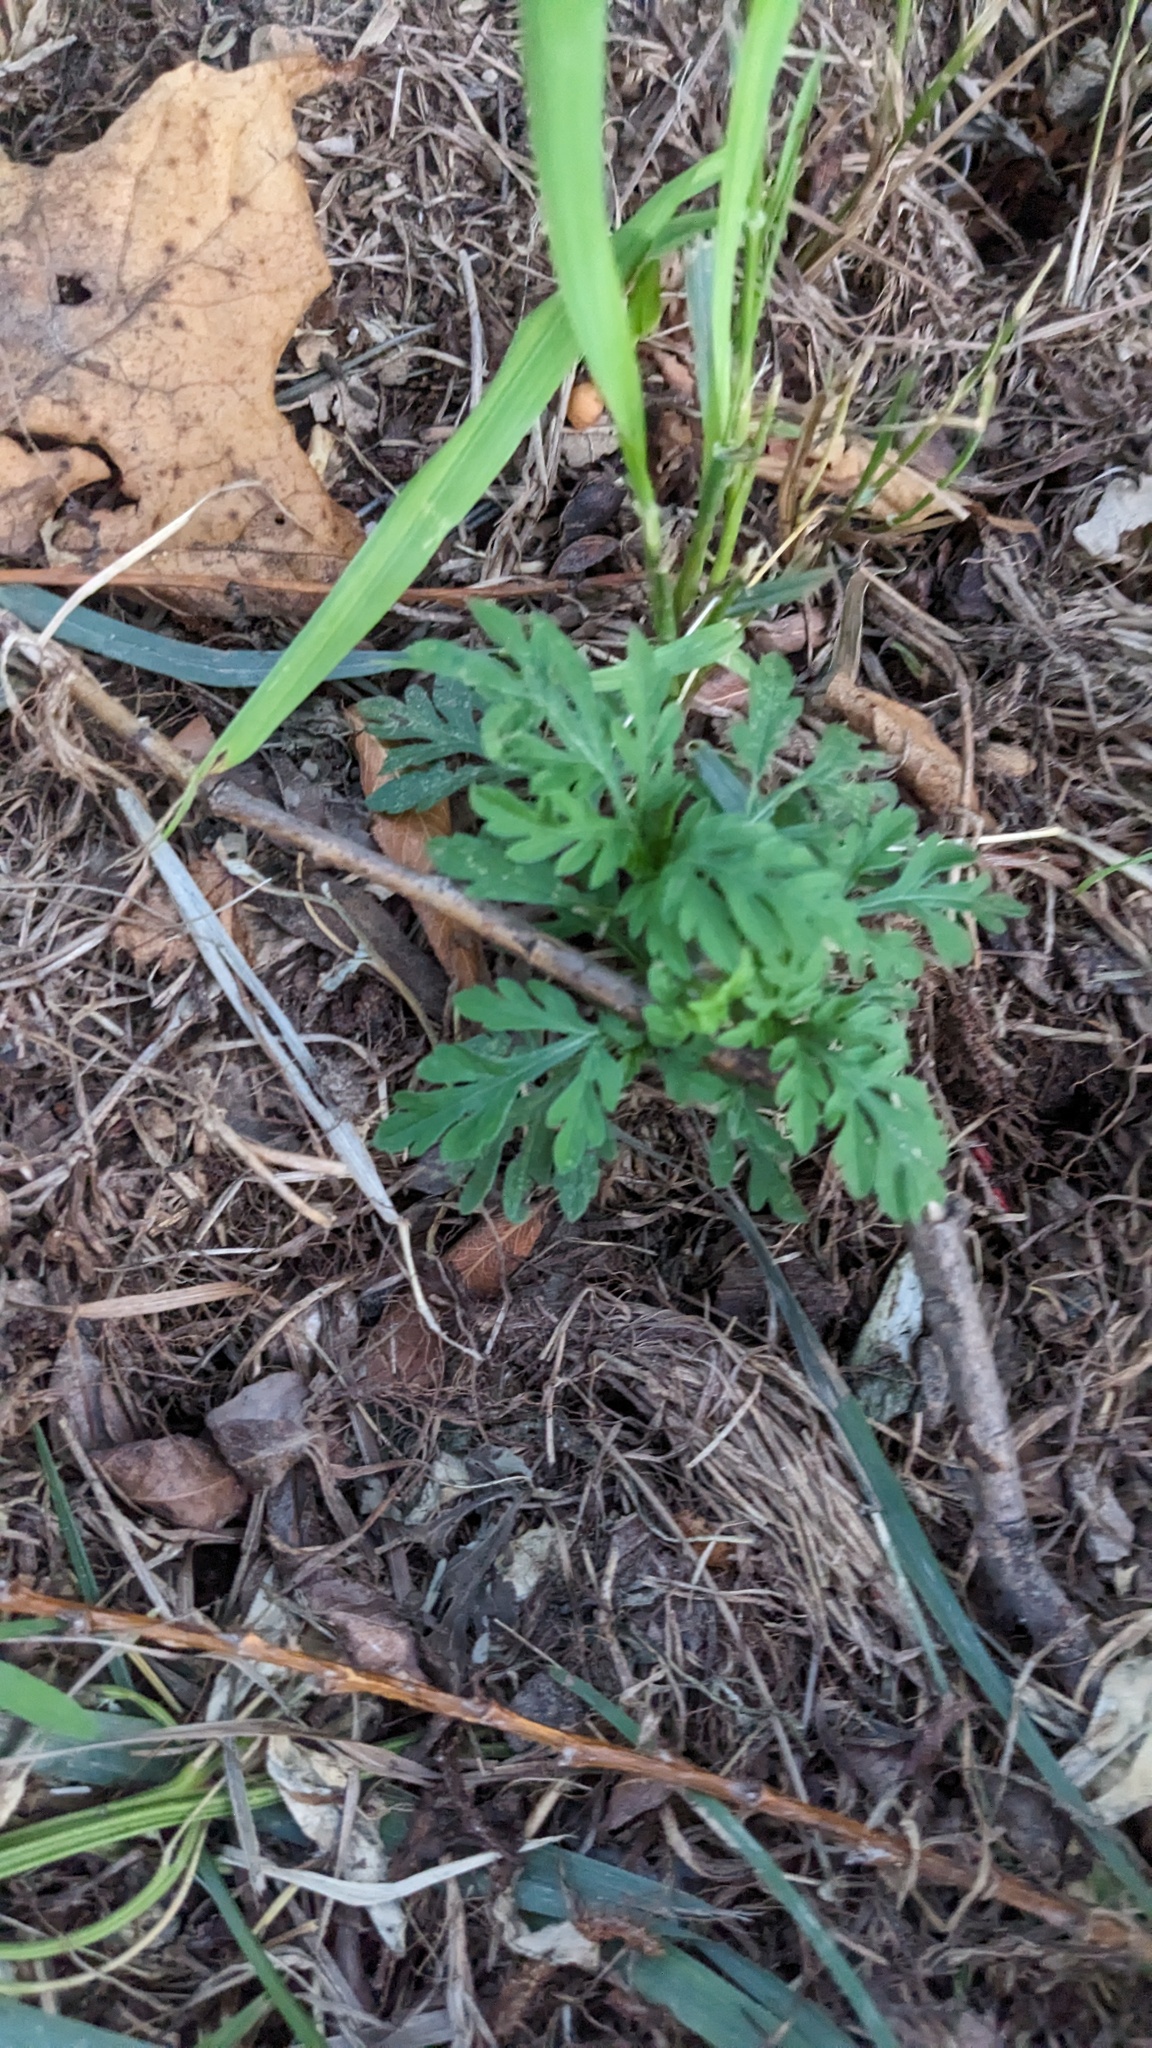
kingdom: Plantae
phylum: Tracheophyta
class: Magnoliopsida
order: Asterales
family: Asteraceae
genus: Ambrosia
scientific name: Ambrosia artemisiifolia
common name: Annual ragweed
